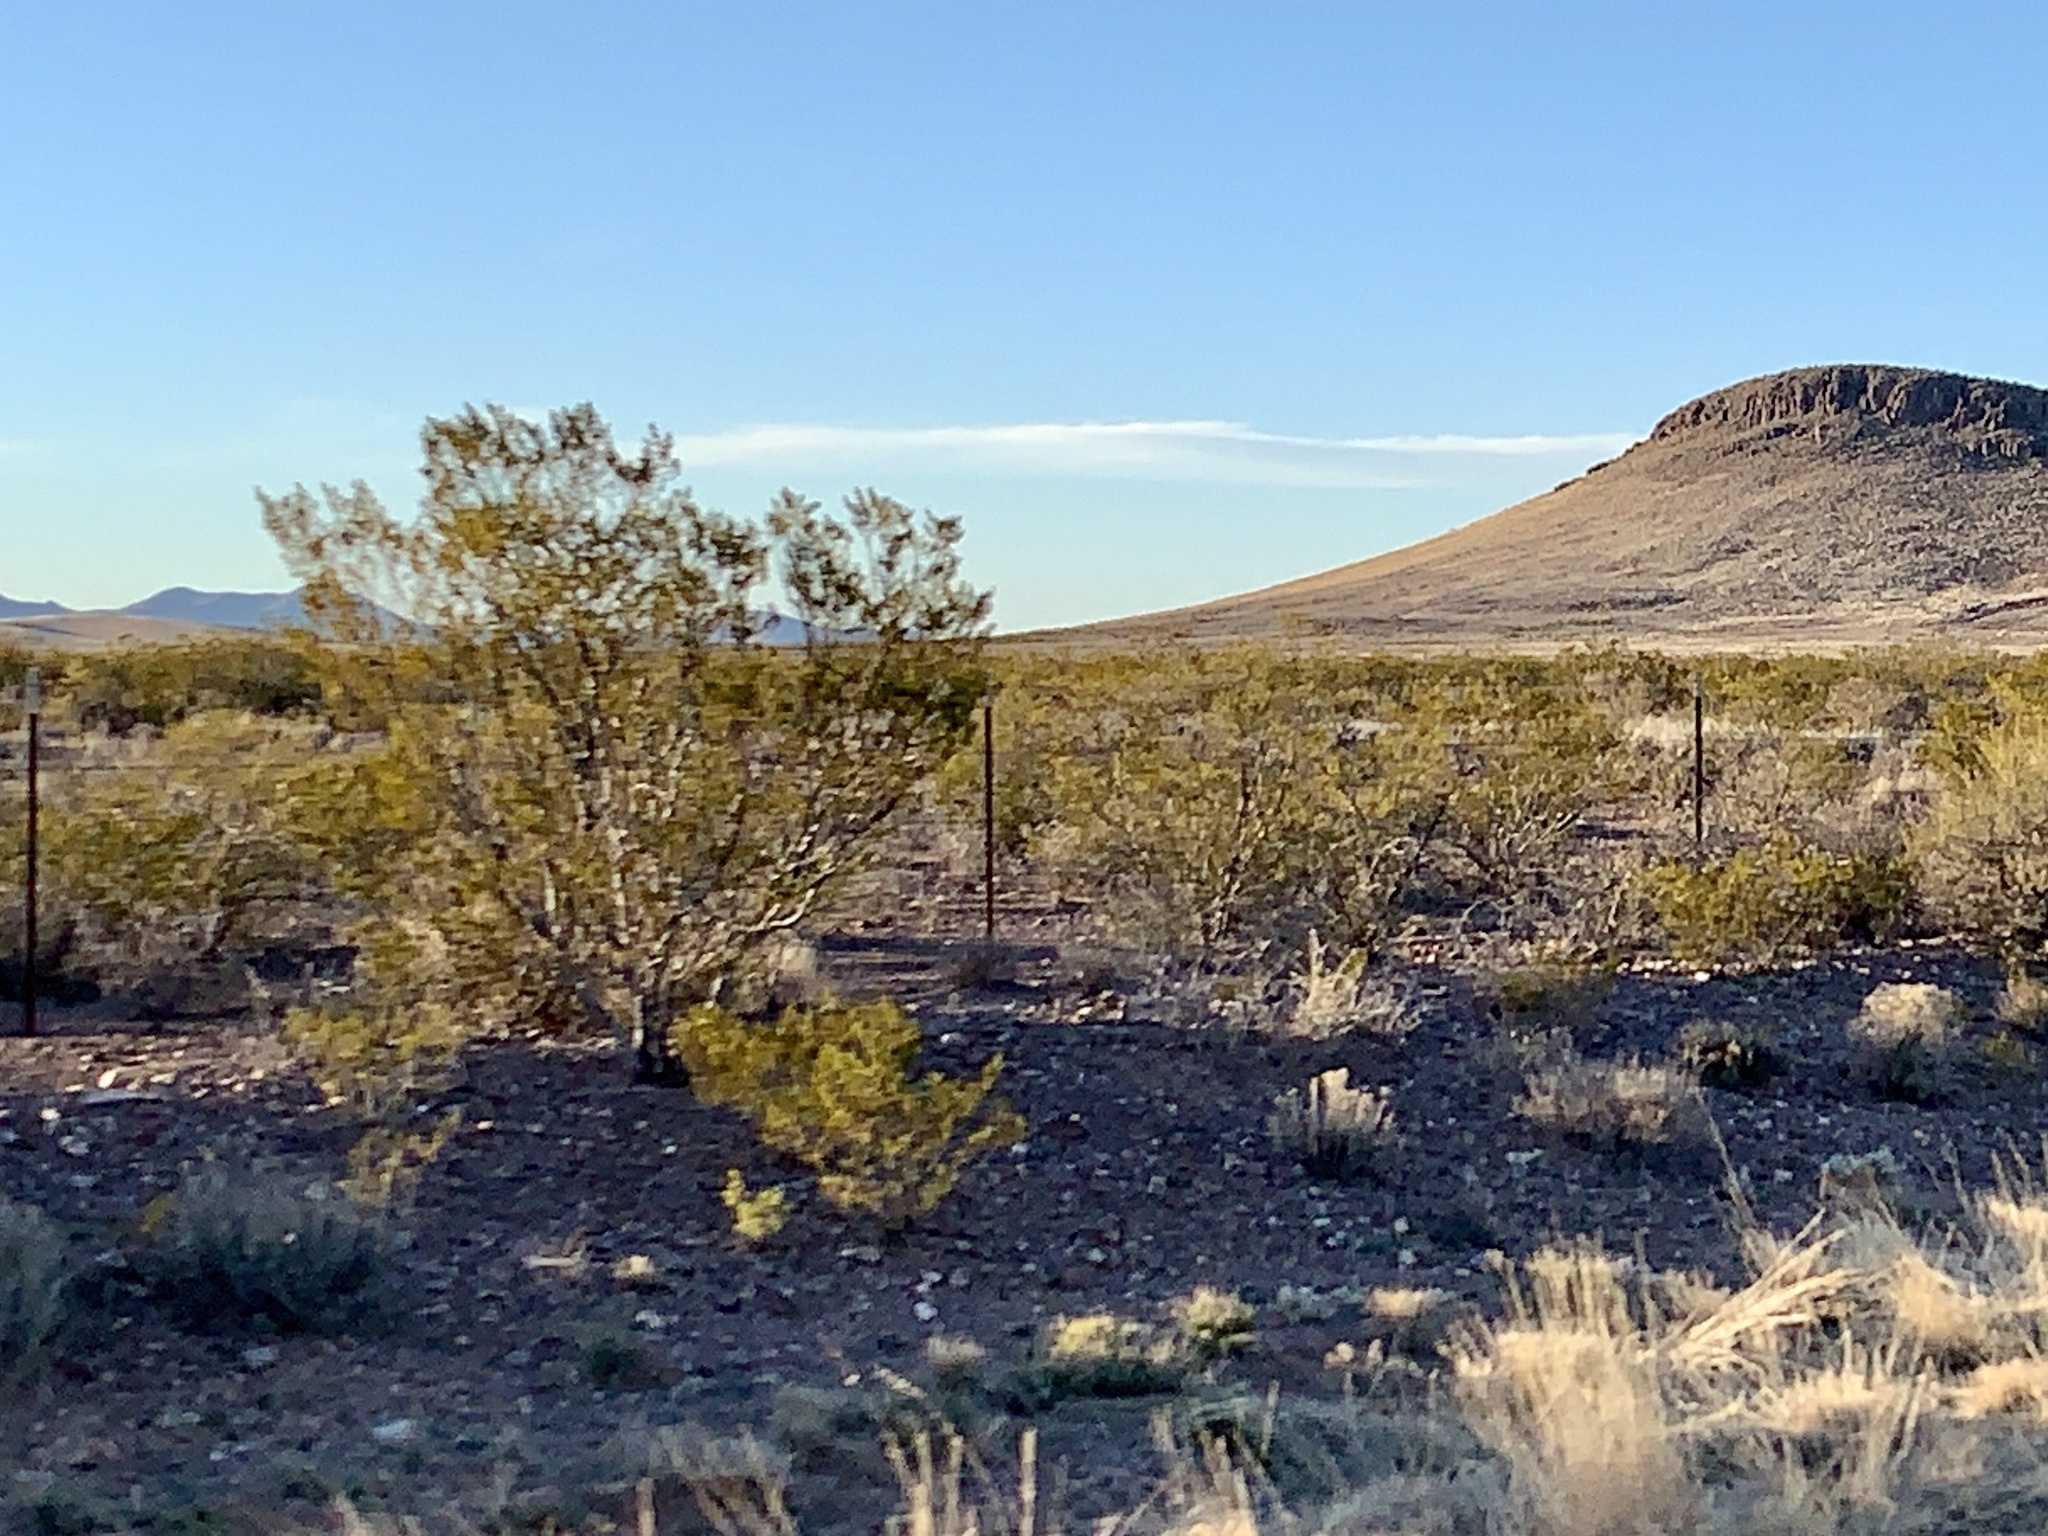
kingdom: Plantae
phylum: Tracheophyta
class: Magnoliopsida
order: Zygophyllales
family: Zygophyllaceae
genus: Larrea
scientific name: Larrea tridentata
